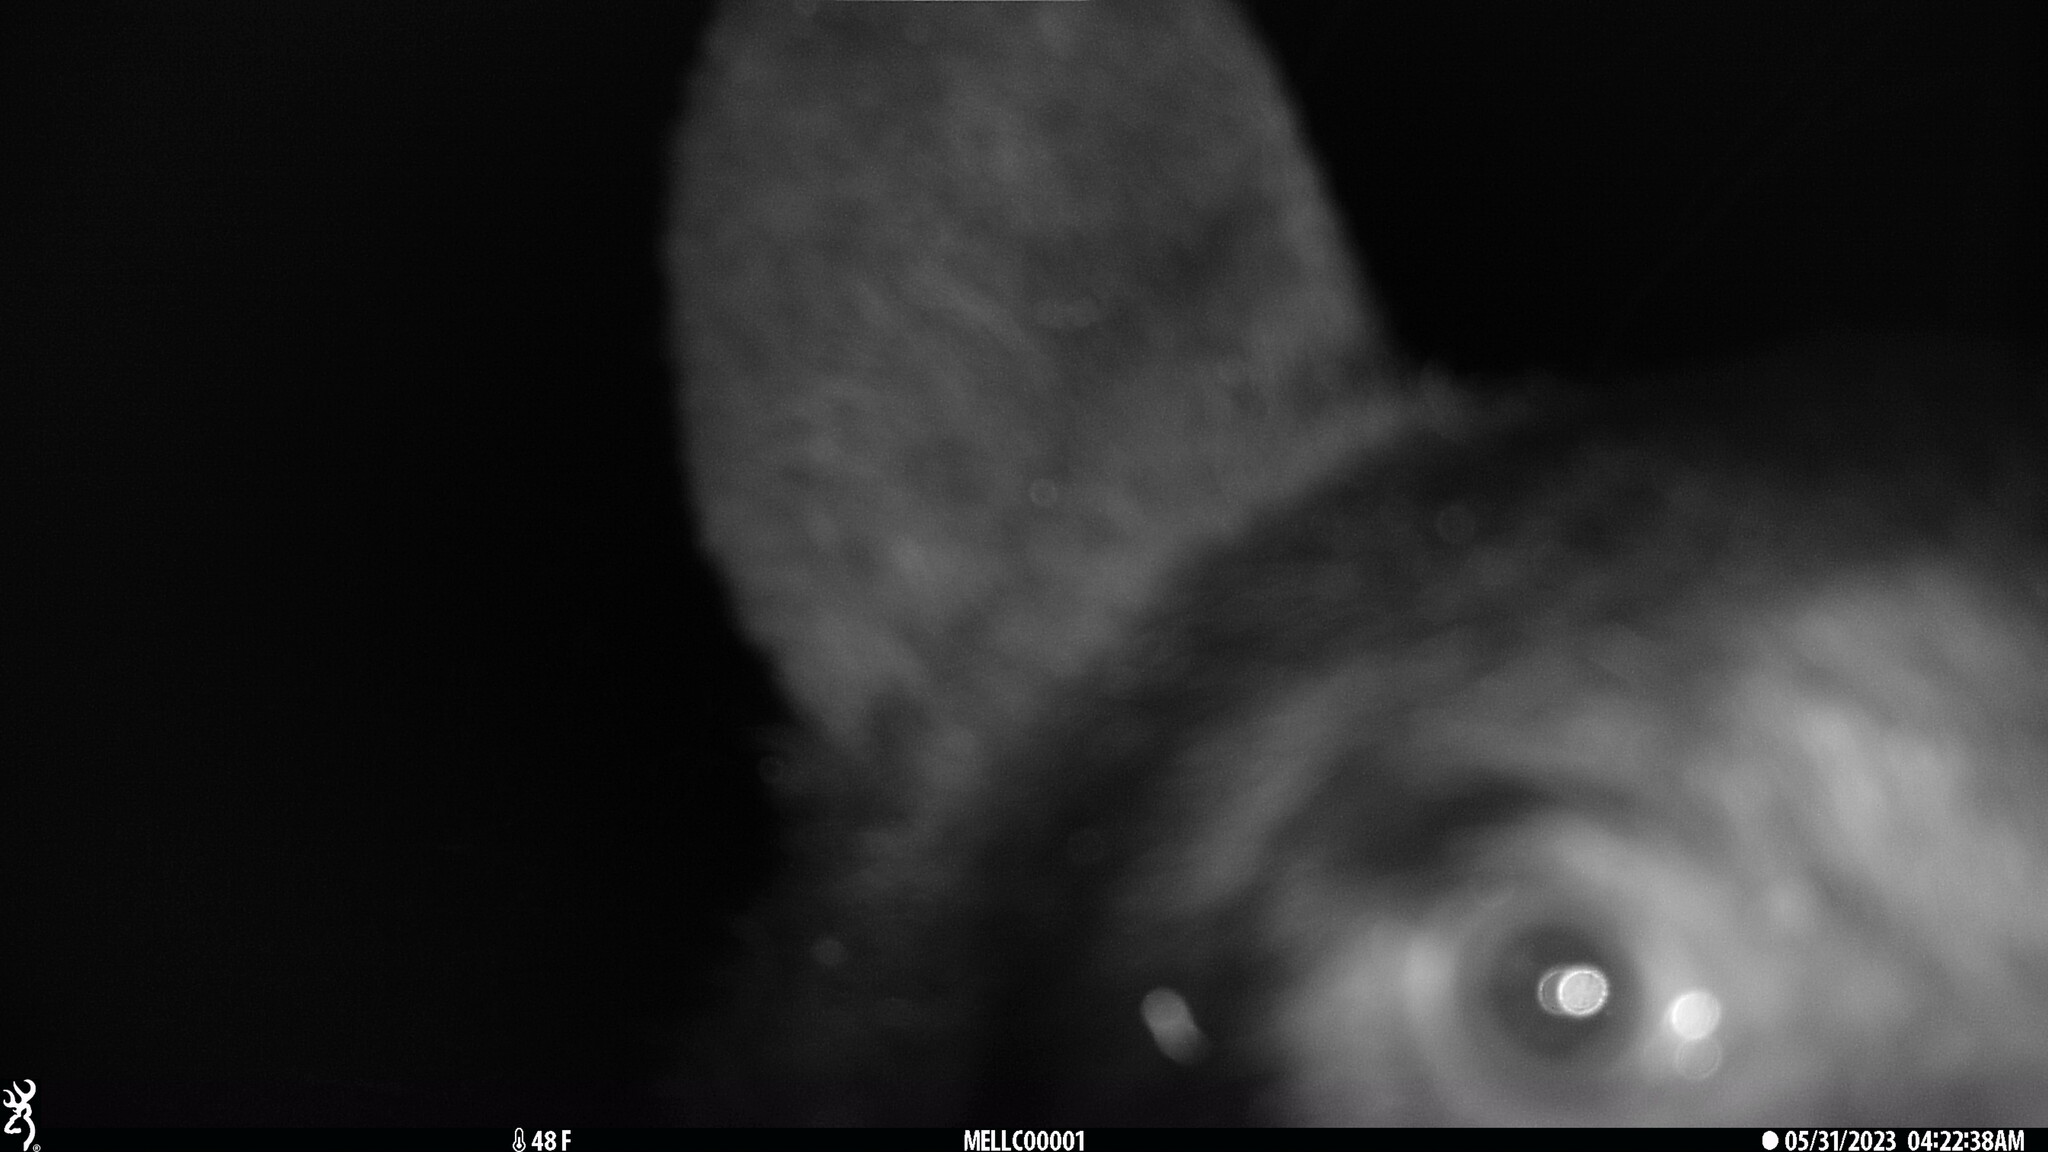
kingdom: Animalia
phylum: Chordata
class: Mammalia
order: Carnivora
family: Ursidae
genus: Ursus
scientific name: Ursus americanus
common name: American black bear
